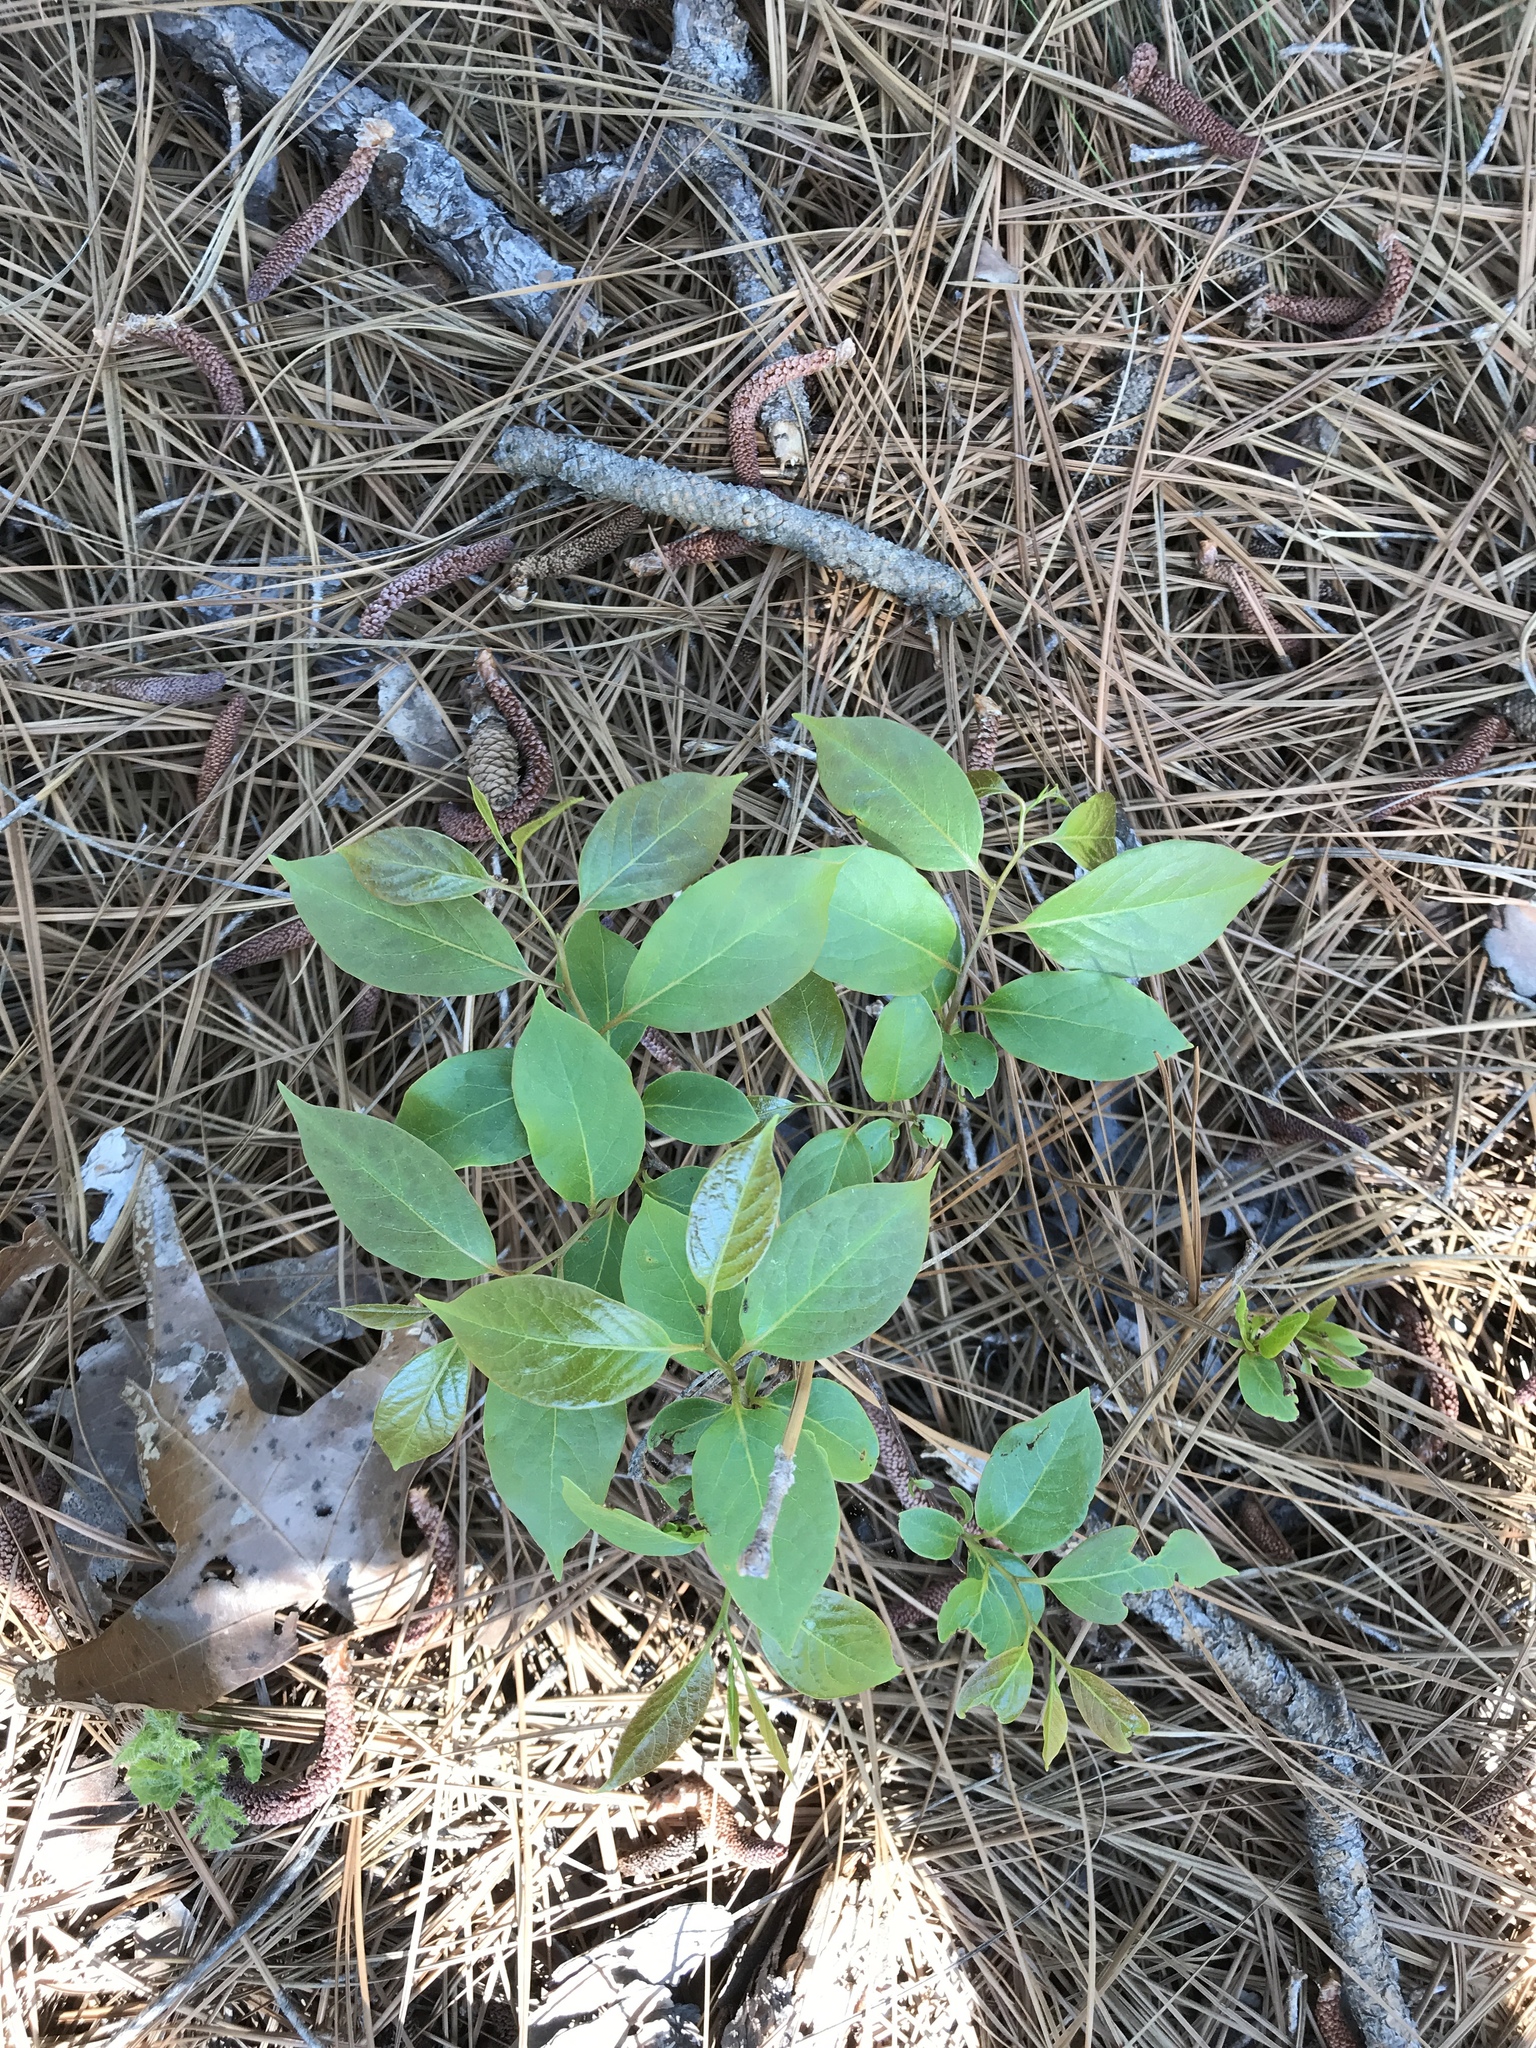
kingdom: Plantae
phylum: Tracheophyta
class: Magnoliopsida
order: Ericales
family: Ebenaceae
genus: Diospyros
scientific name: Diospyros virginiana
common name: Persimmon
